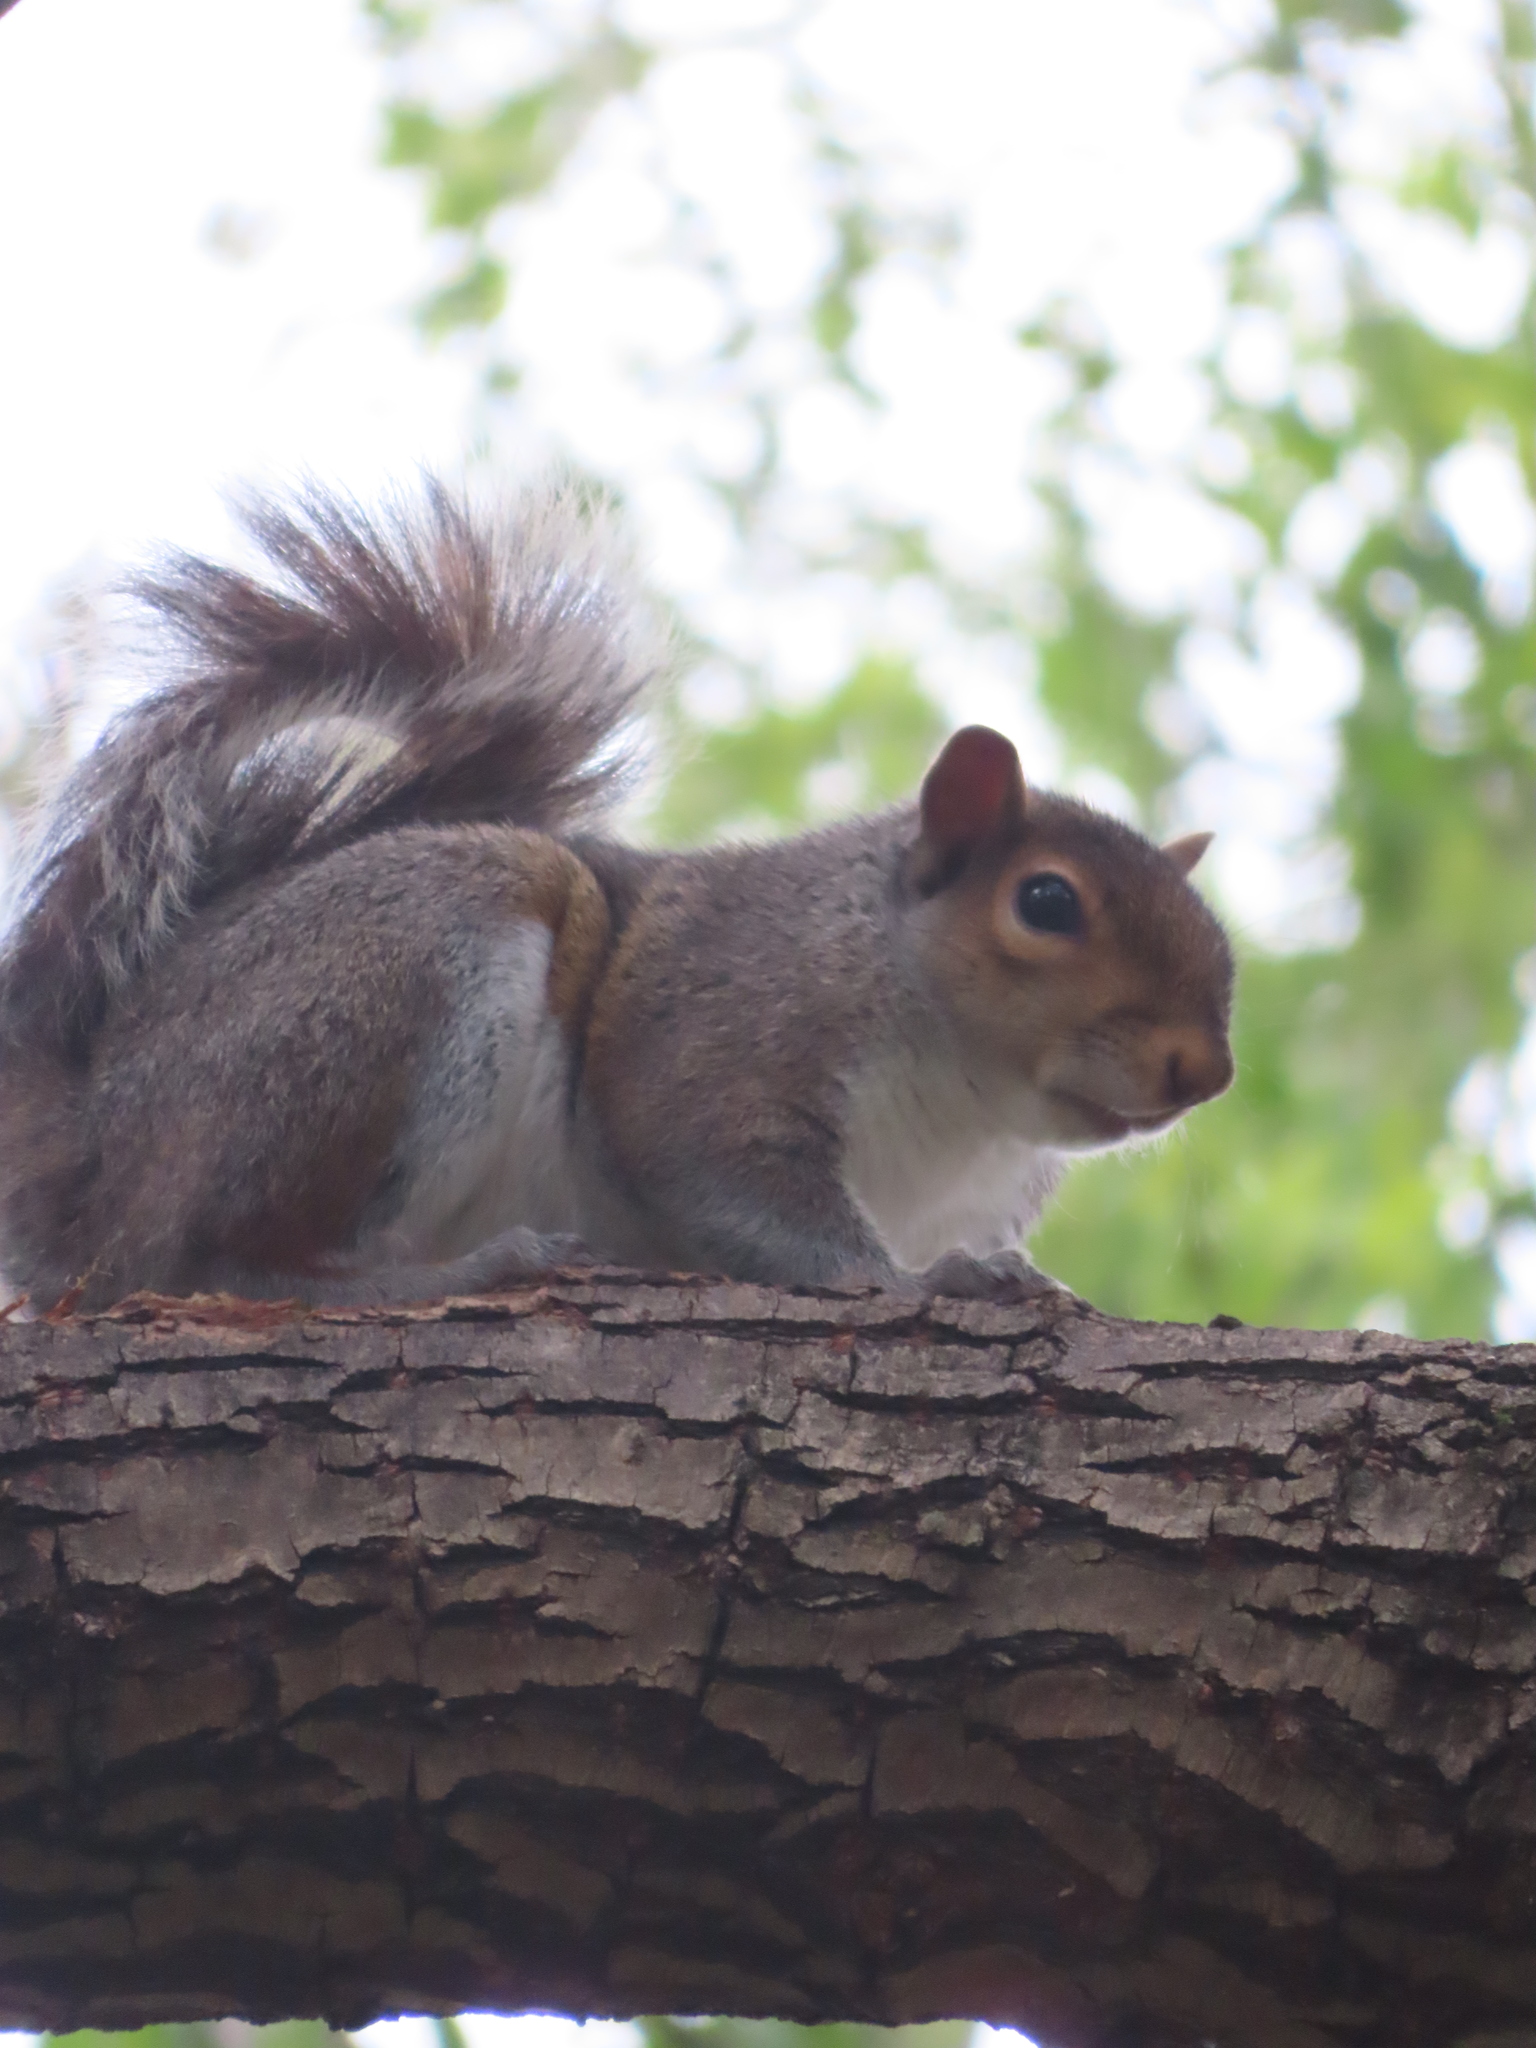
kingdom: Animalia
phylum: Chordata
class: Mammalia
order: Rodentia
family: Sciuridae
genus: Sciurus
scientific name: Sciurus carolinensis
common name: Eastern gray squirrel
